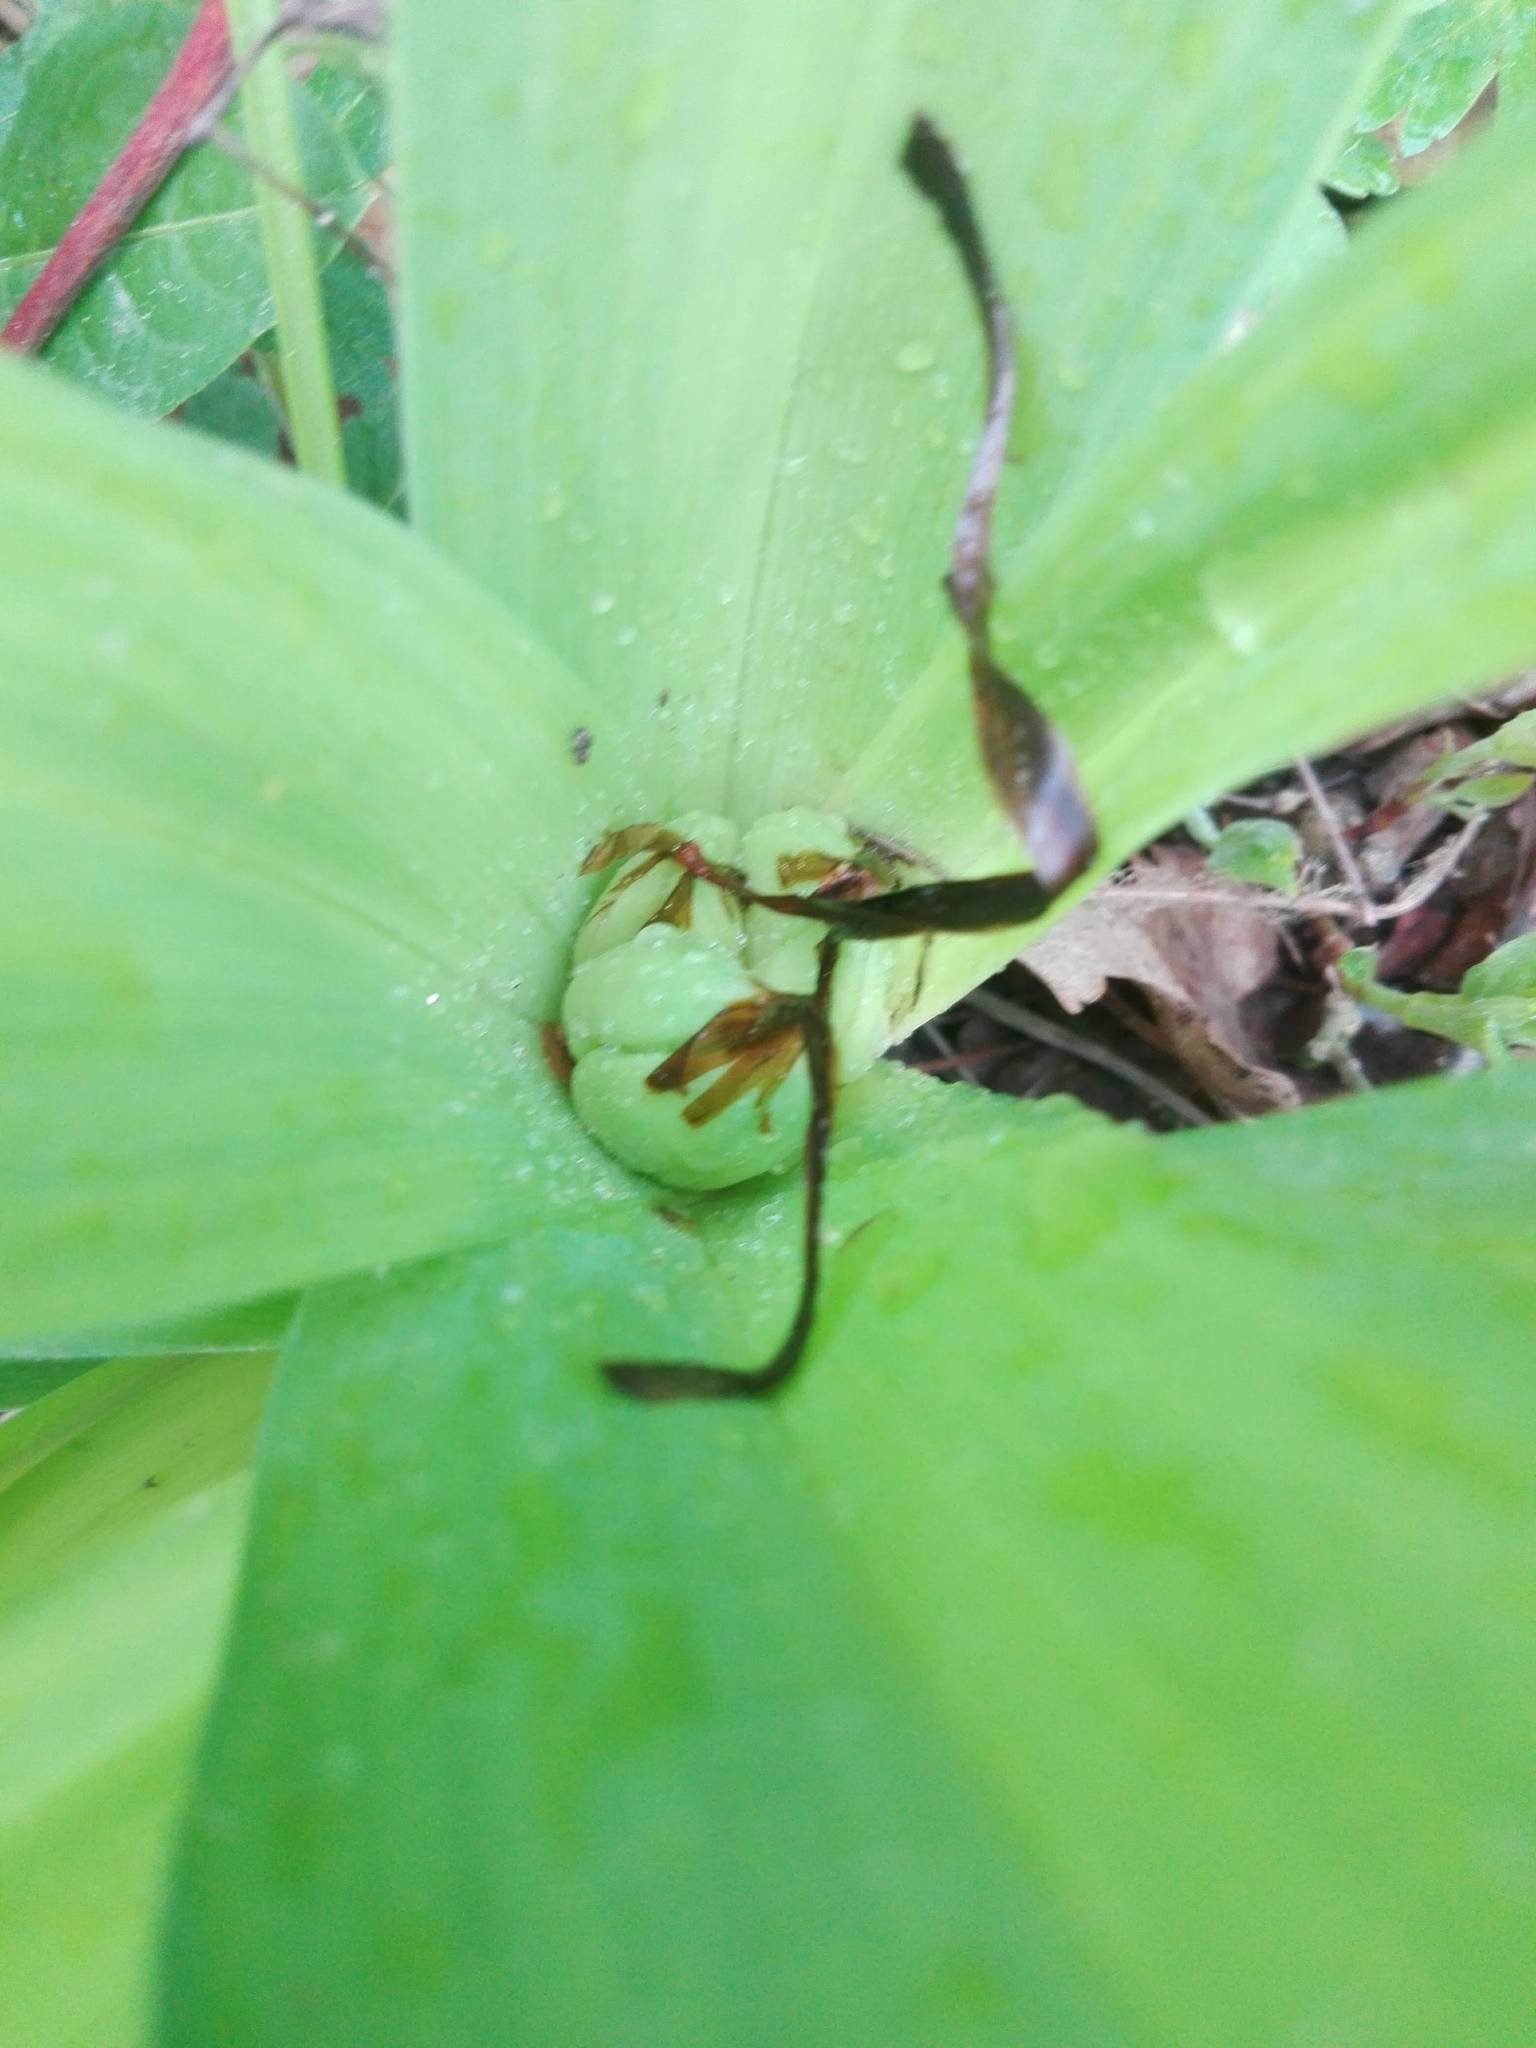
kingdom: Plantae
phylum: Tracheophyta
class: Liliopsida
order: Liliales
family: Colchicaceae
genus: Colchicum
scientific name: Colchicum autumnale
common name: Autumn crocus
